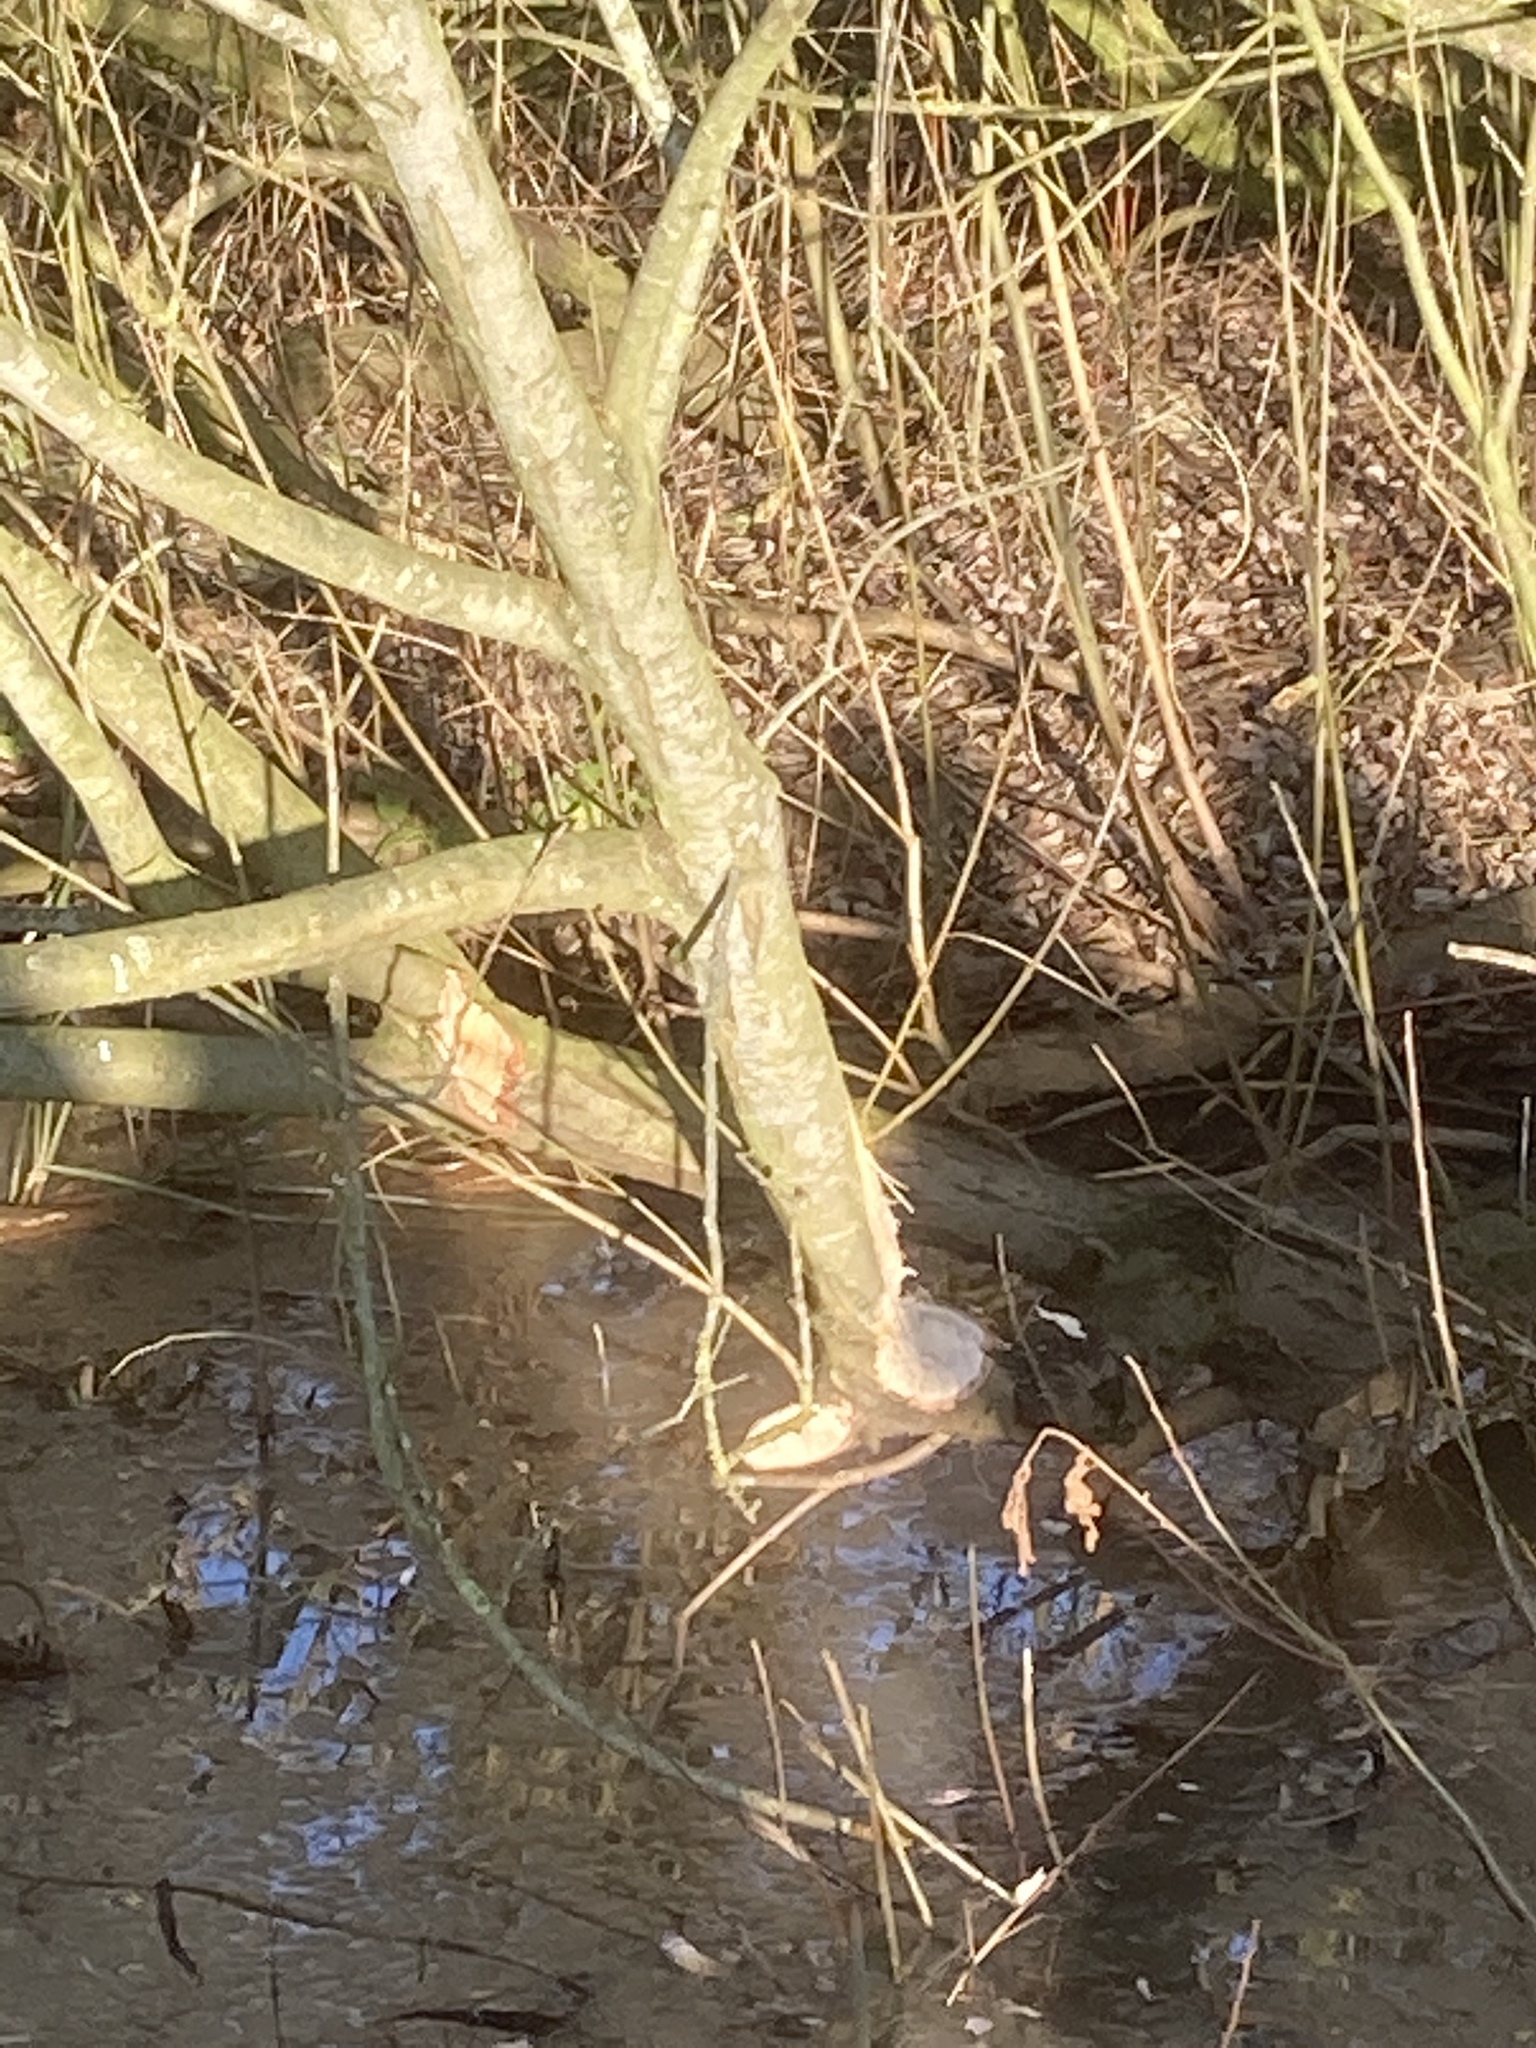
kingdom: Animalia
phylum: Chordata
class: Mammalia
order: Rodentia
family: Castoridae
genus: Castor
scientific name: Castor fiber
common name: Eurasian beaver
